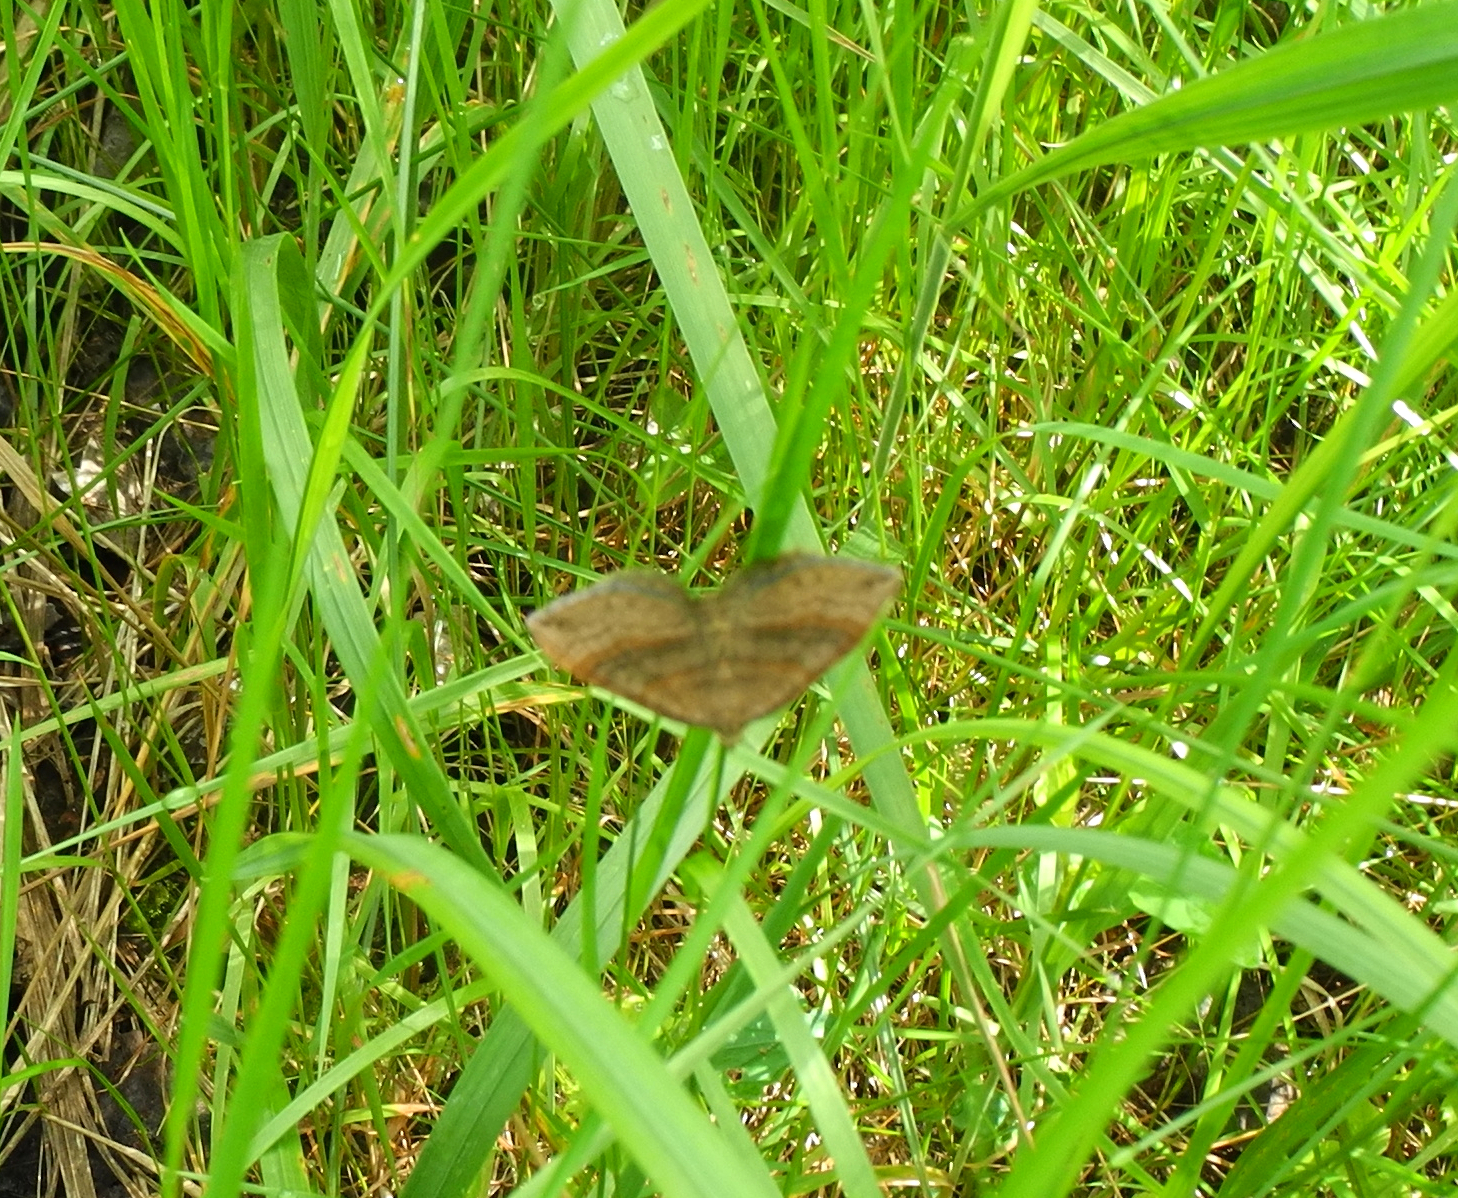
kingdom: Animalia
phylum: Arthropoda
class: Insecta
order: Lepidoptera
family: Geometridae
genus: Scotopteryx
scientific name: Scotopteryx chenopodiata
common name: Shaded broad-bar
